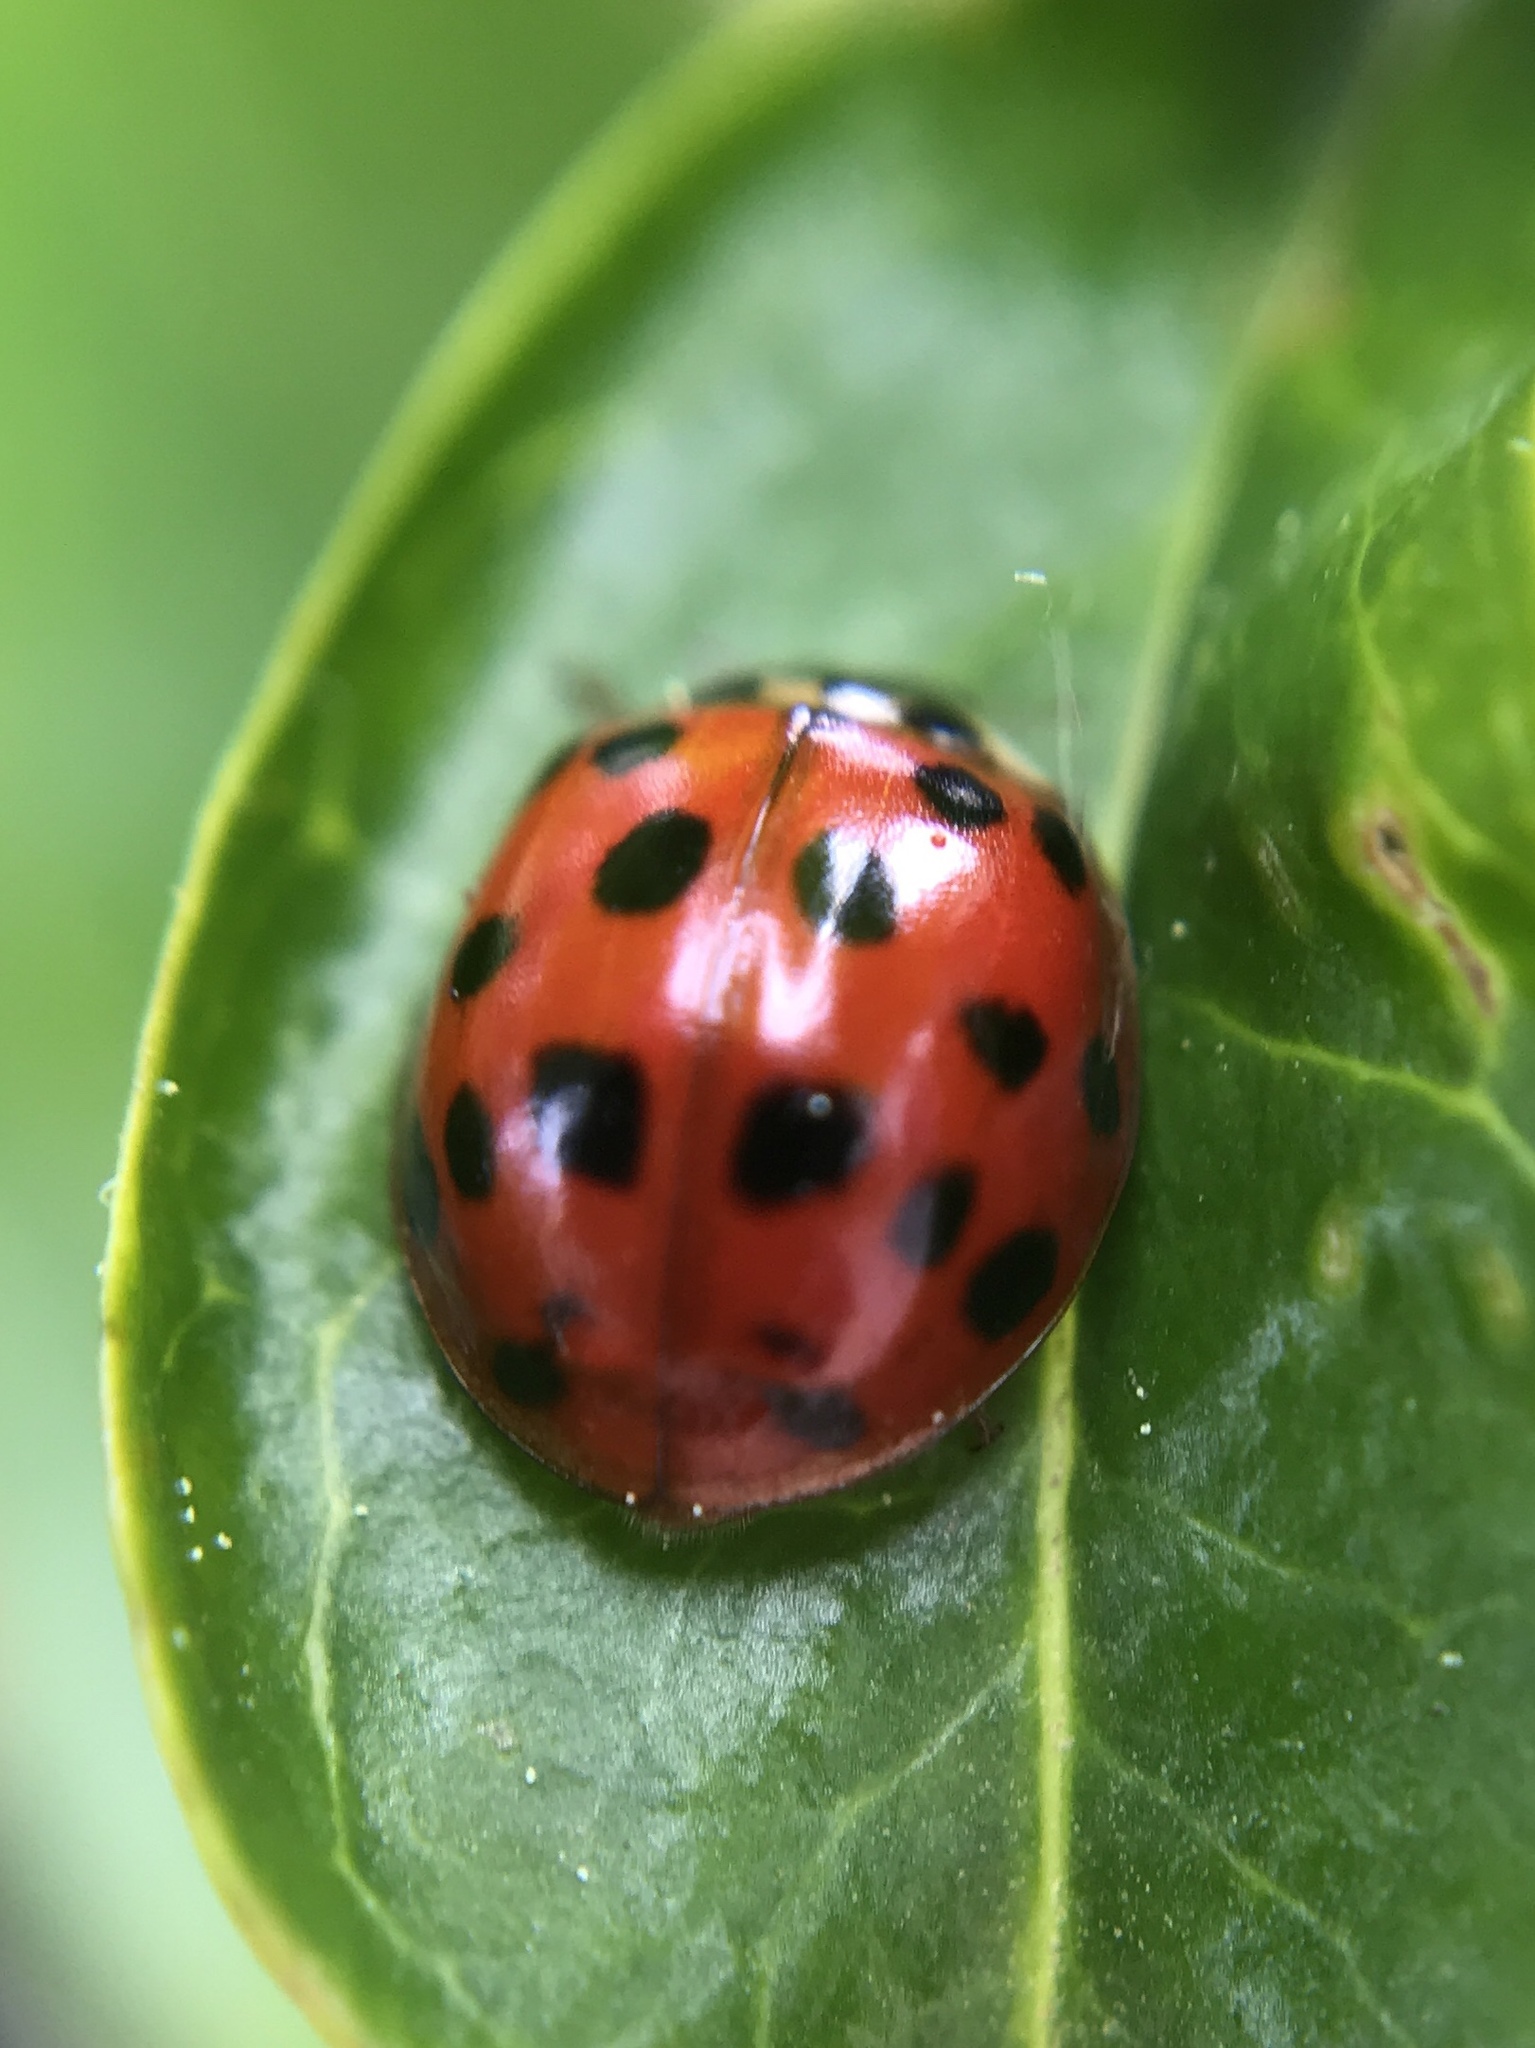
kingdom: Animalia
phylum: Arthropoda
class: Insecta
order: Coleoptera
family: Coccinellidae
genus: Harmonia
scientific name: Harmonia axyridis
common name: Harlequin ladybird
